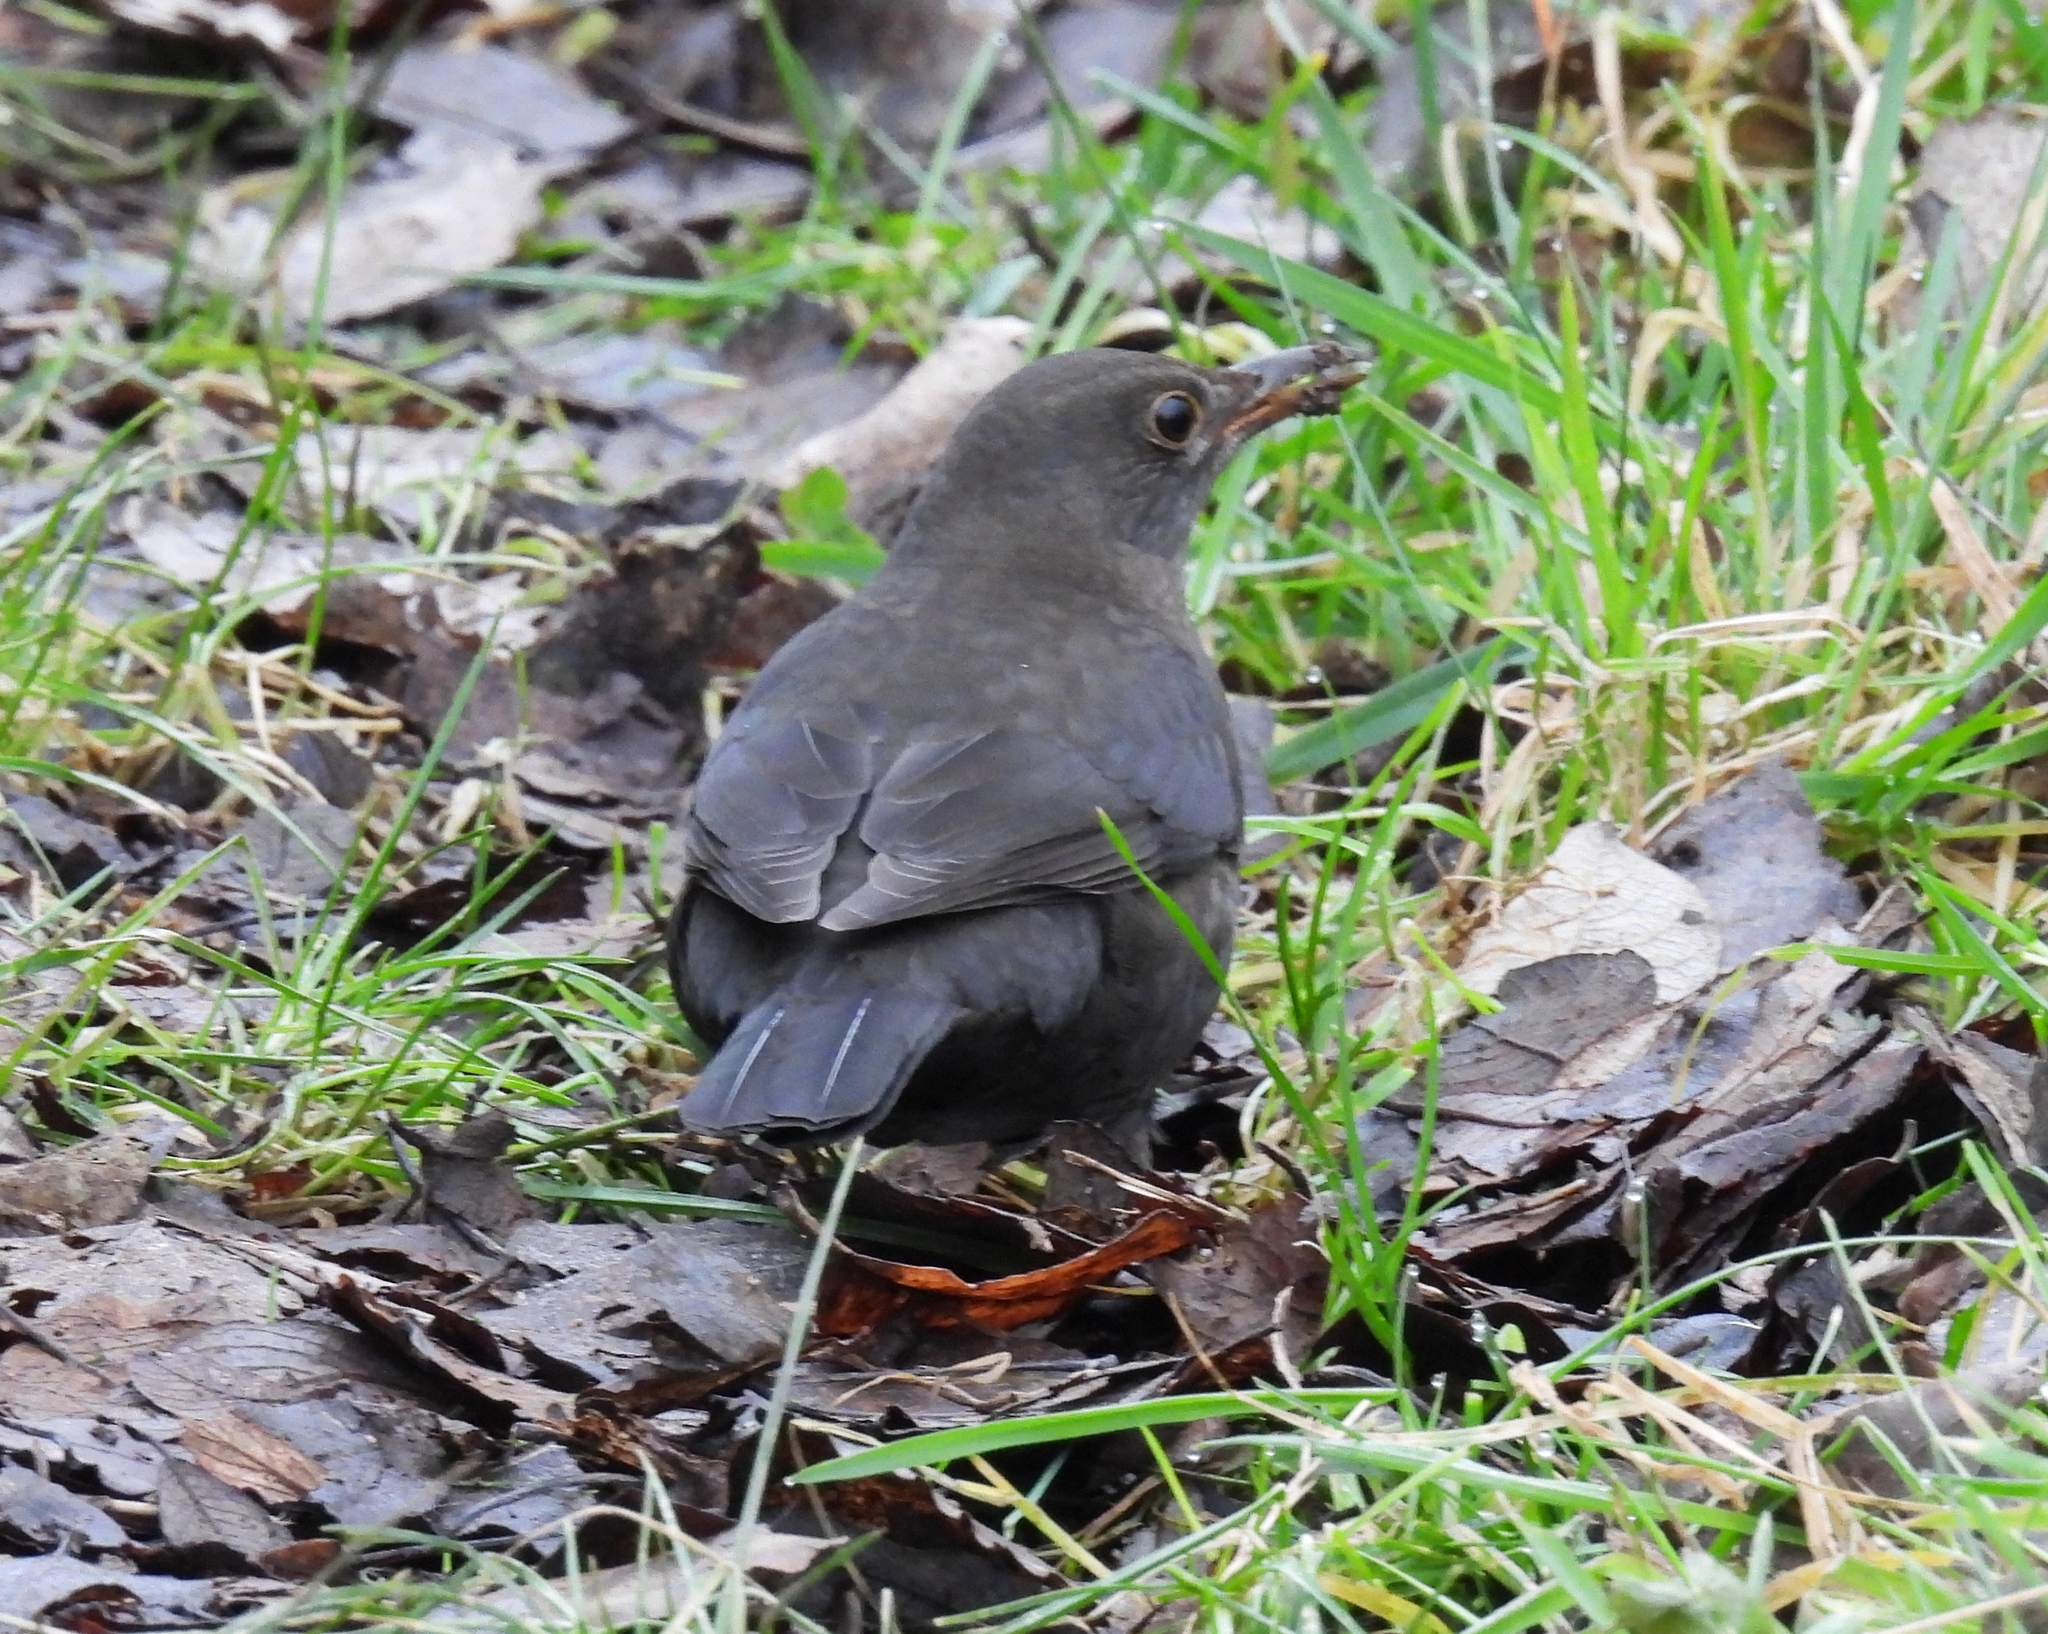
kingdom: Animalia
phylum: Chordata
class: Aves
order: Passeriformes
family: Turdidae
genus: Turdus
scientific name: Turdus merula
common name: Common blackbird
